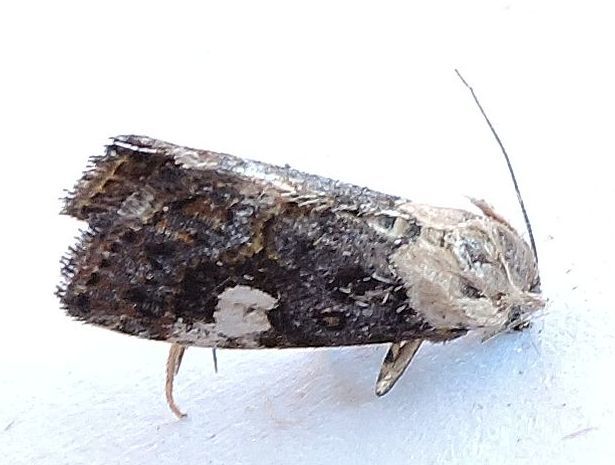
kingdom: Animalia
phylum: Arthropoda
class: Insecta
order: Lepidoptera
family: Noctuidae
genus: Lithacodia
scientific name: Lithacodia phya
